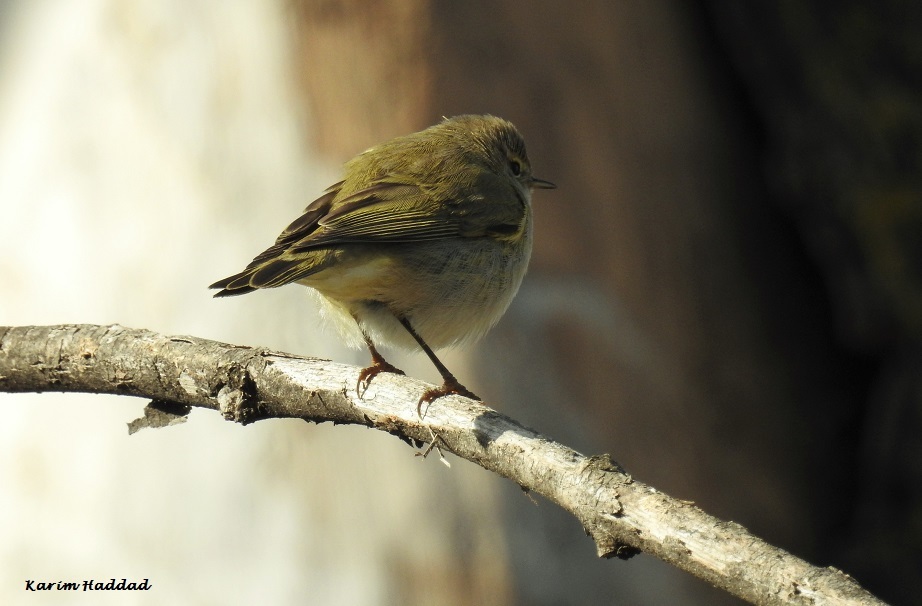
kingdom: Animalia
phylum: Chordata
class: Aves
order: Passeriformes
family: Phylloscopidae
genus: Phylloscopus
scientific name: Phylloscopus collybita
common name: Common chiffchaff
